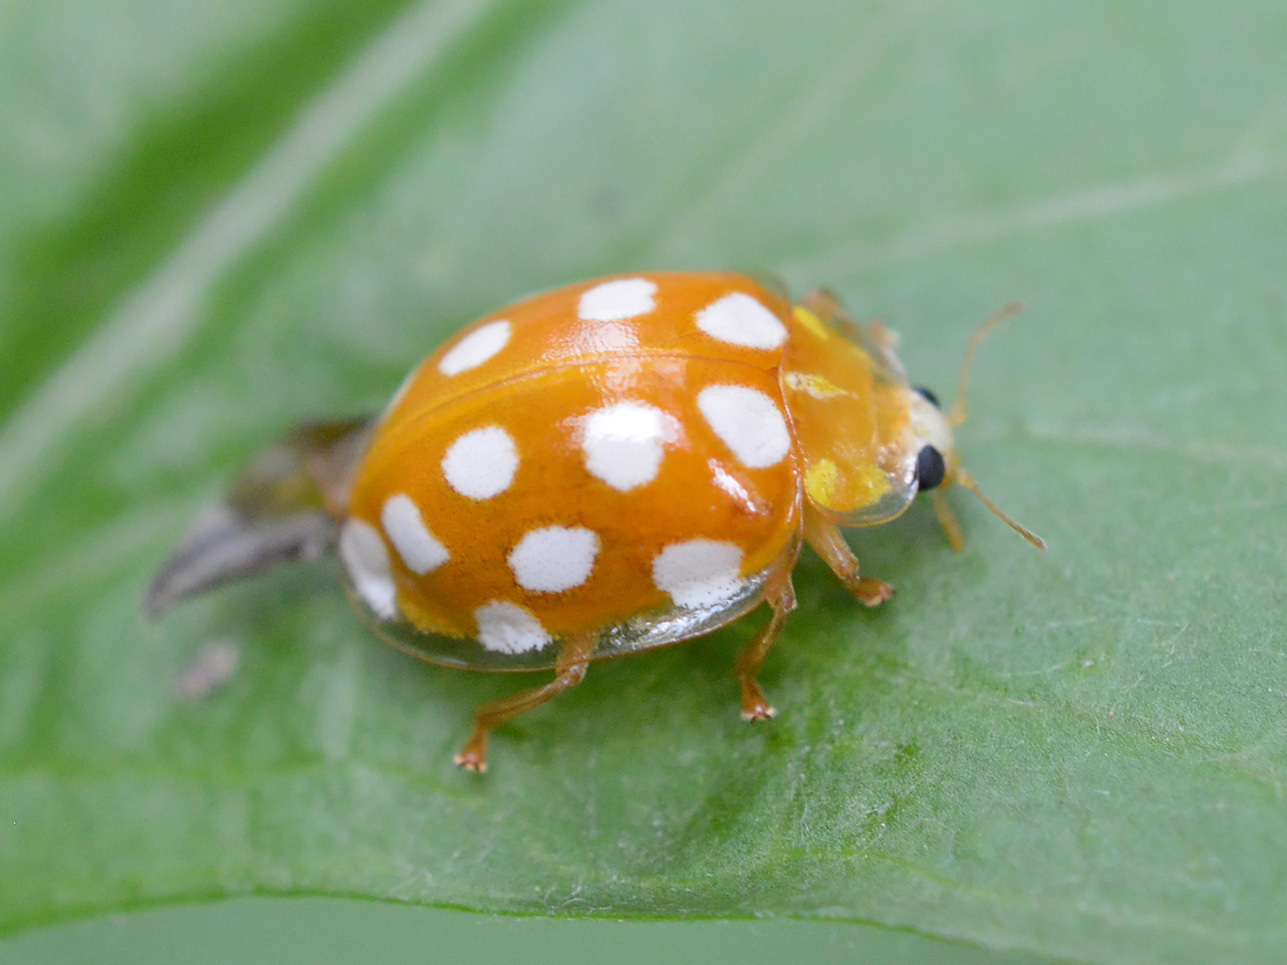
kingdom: Animalia
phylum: Arthropoda
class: Insecta
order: Coleoptera
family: Coccinellidae
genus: Halyzia
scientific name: Halyzia sedecimguttata
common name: Orange ladybird
